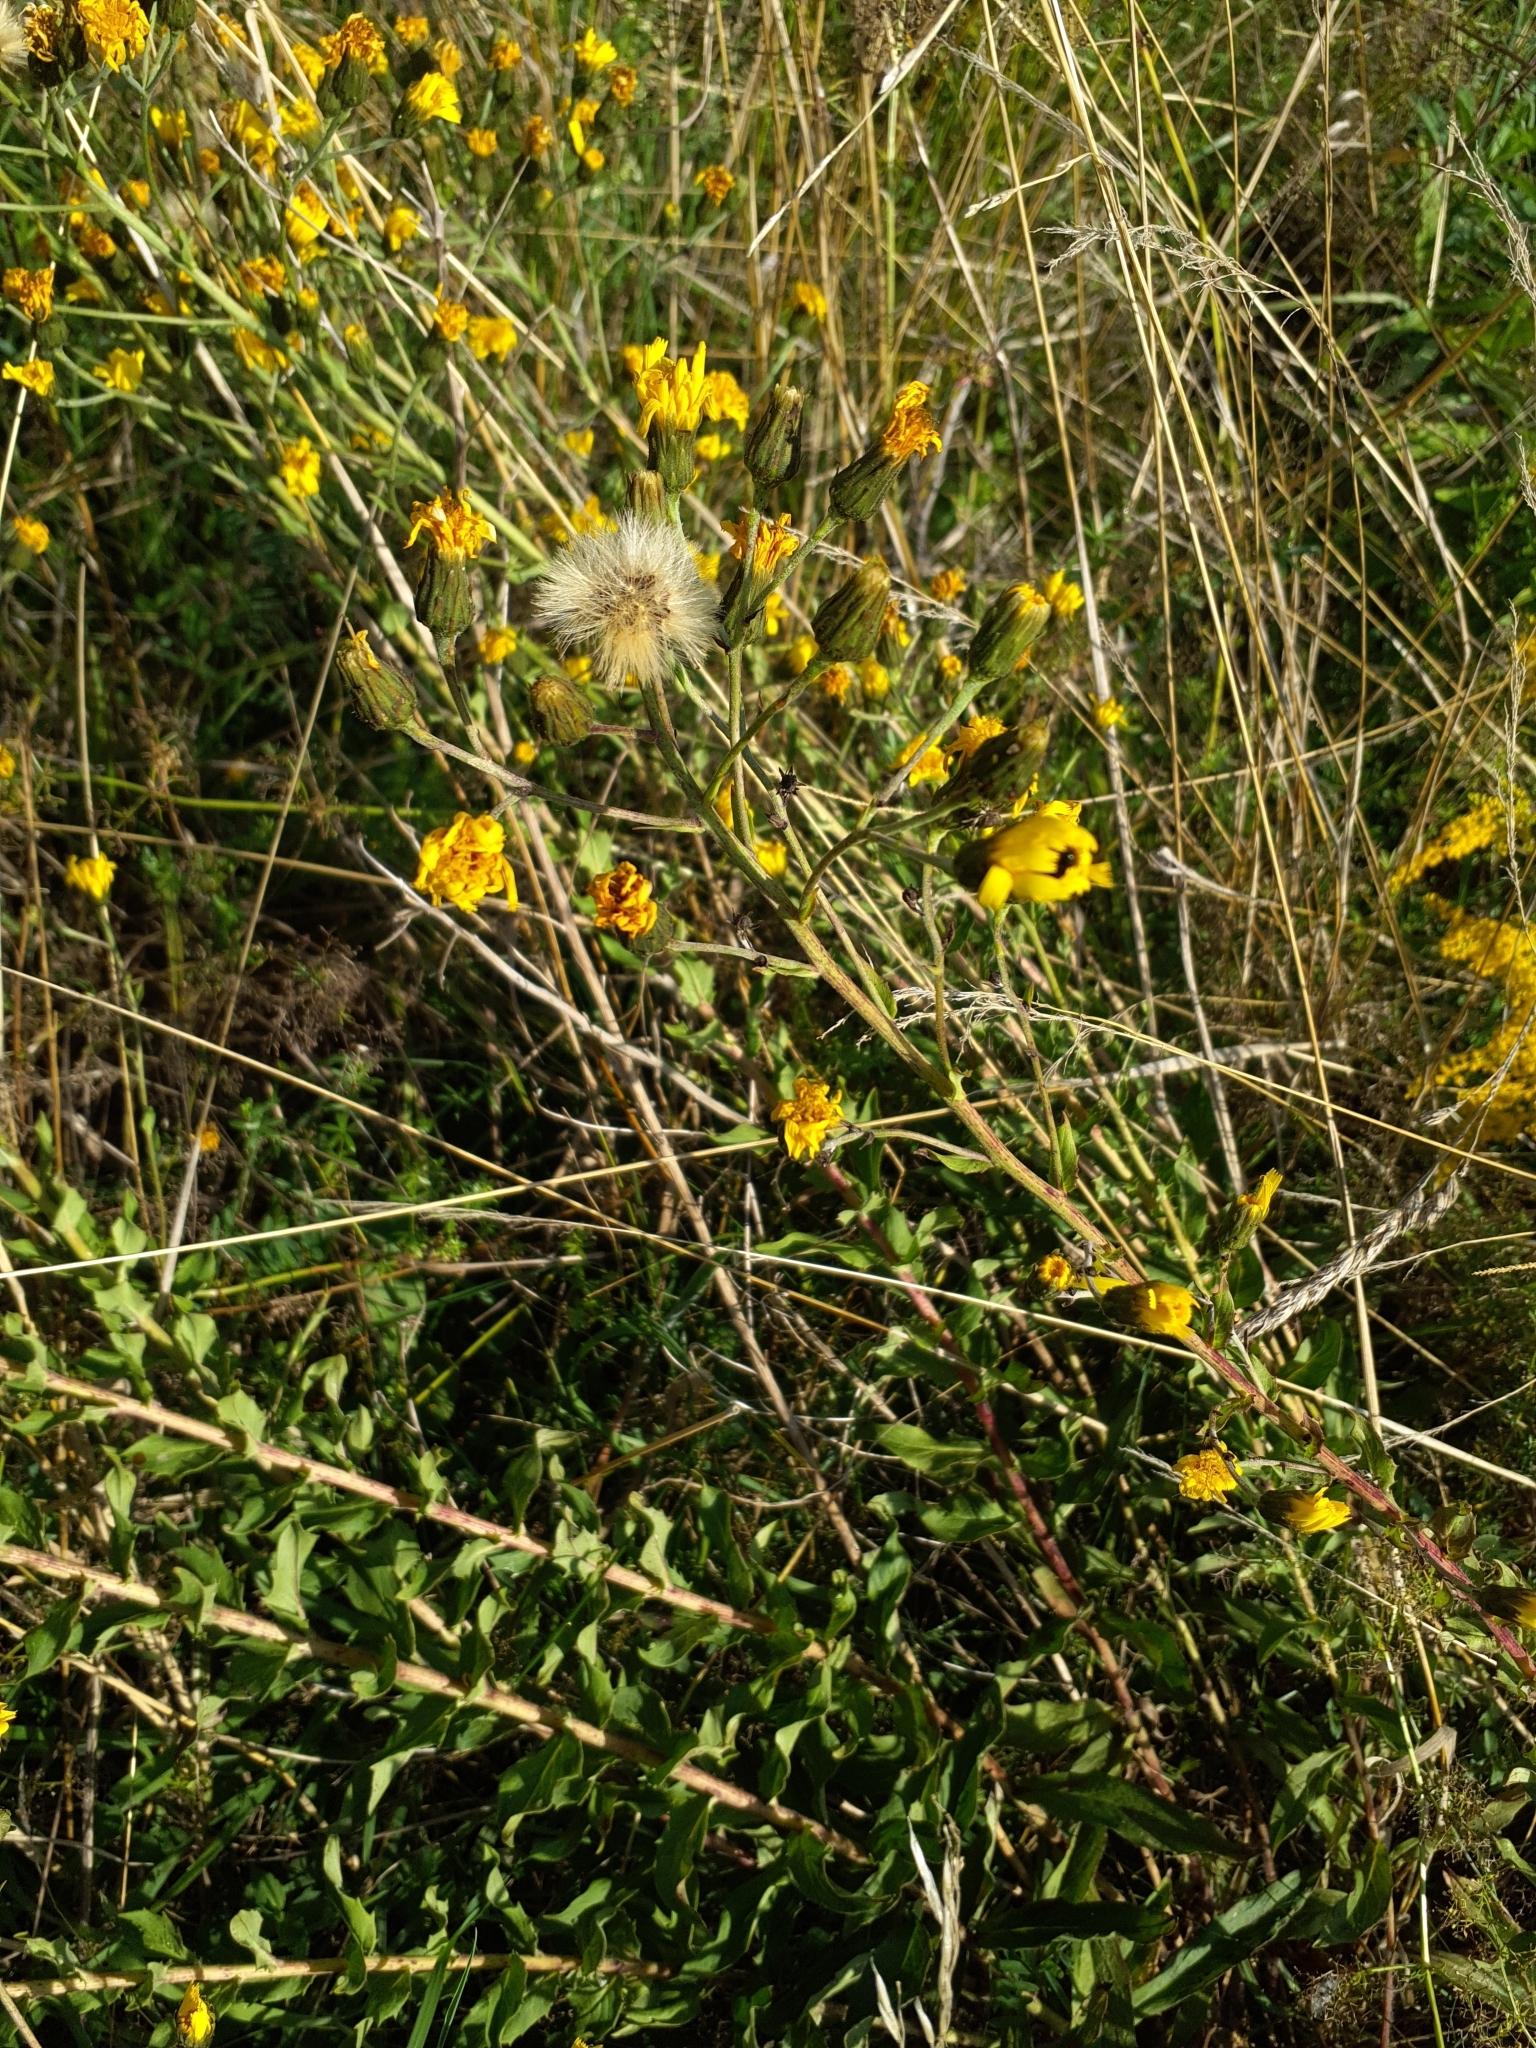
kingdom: Plantae
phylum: Tracheophyta
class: Magnoliopsida
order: Asterales
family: Asteraceae
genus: Hieracium
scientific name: Hieracium sabaudum
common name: New england hawkweed
